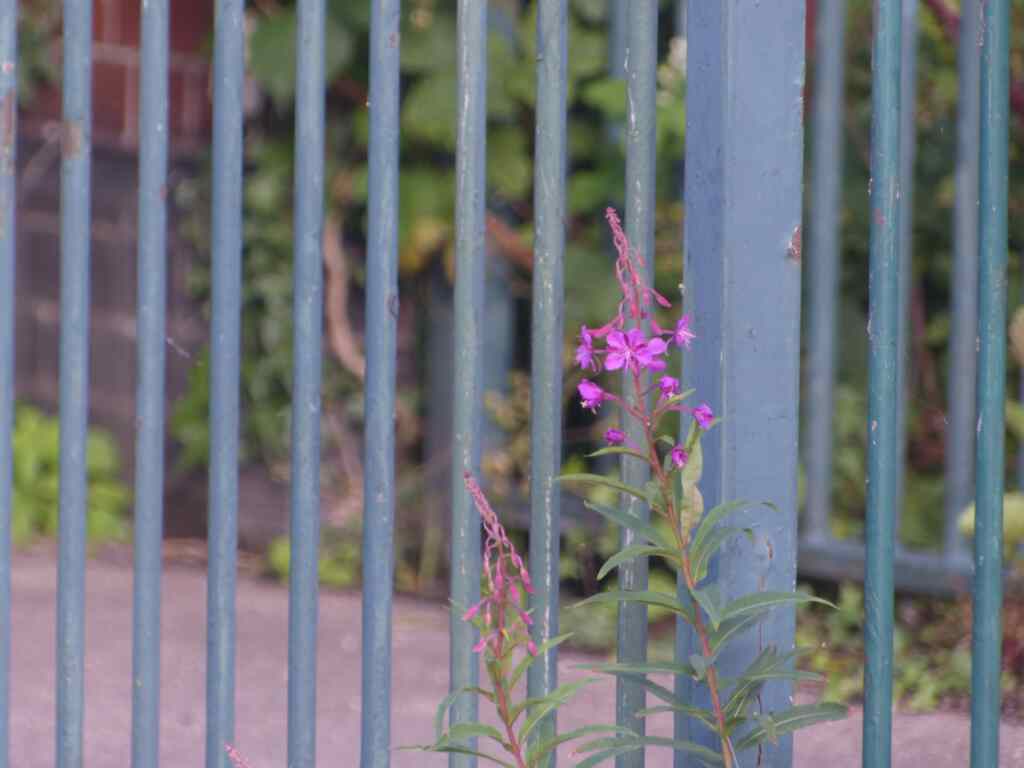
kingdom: Plantae
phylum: Tracheophyta
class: Magnoliopsida
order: Myrtales
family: Onagraceae
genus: Chamaenerion
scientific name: Chamaenerion angustifolium
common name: Fireweed
